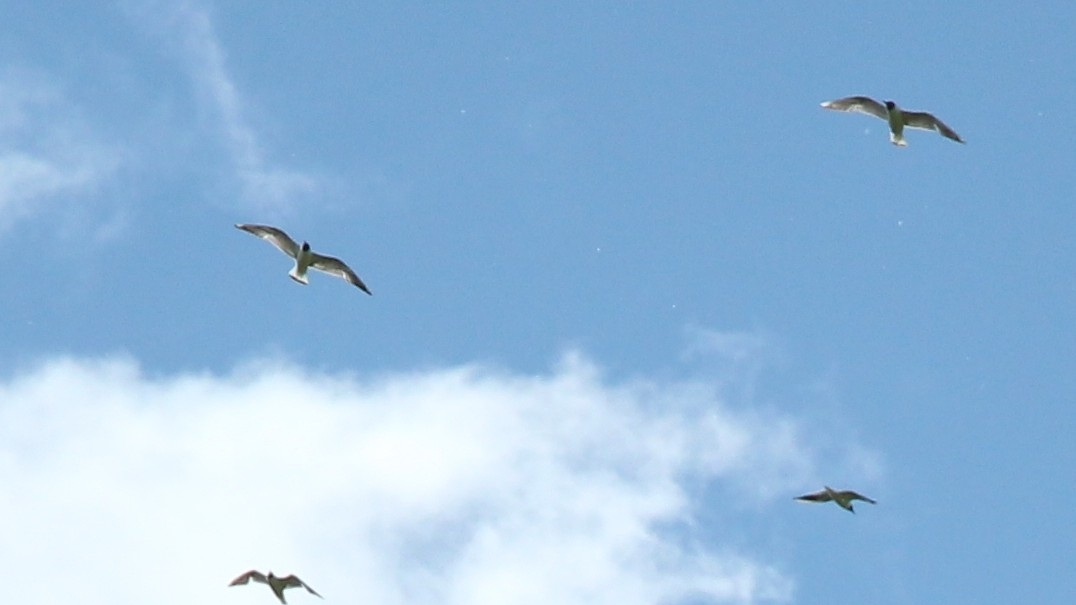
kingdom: Animalia
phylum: Chordata
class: Aves
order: Charadriiformes
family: Laridae
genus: Chroicocephalus
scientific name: Chroicocephalus ridibundus
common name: Black-headed gull
